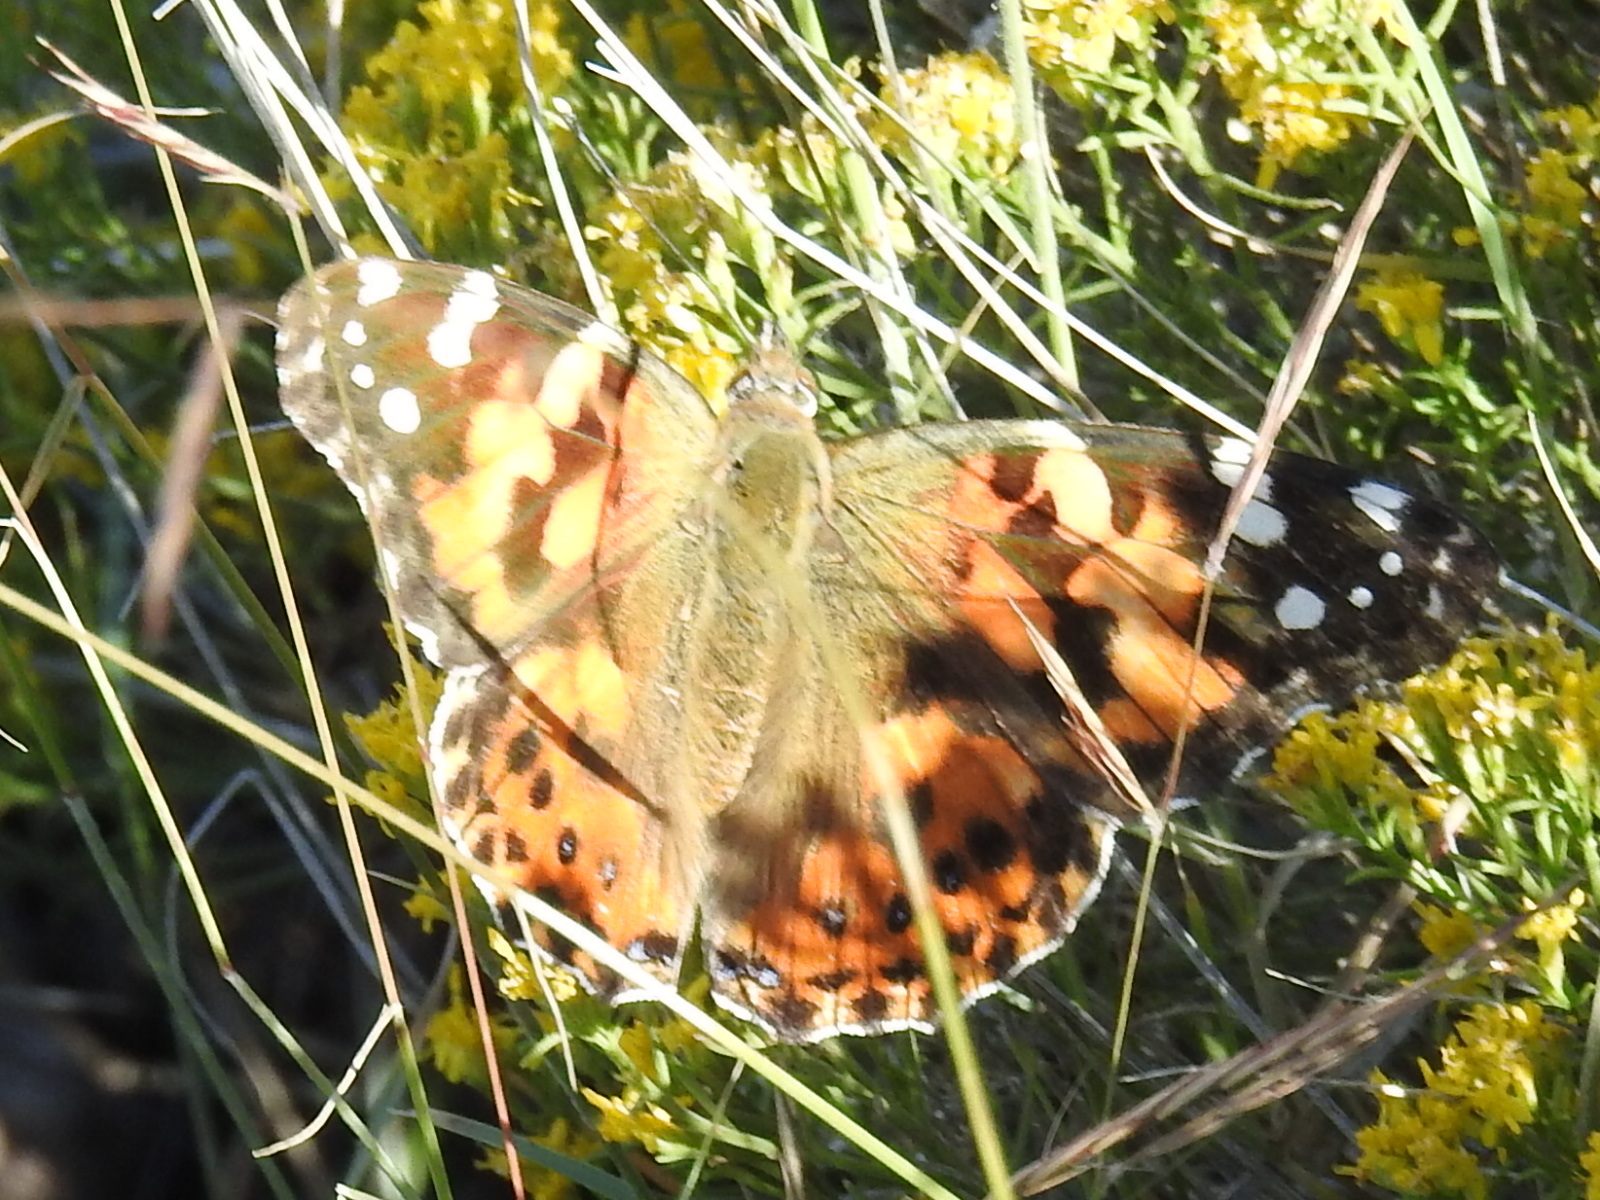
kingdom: Animalia
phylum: Arthropoda
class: Insecta
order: Lepidoptera
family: Nymphalidae
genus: Vanessa
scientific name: Vanessa cardui
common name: Painted lady
